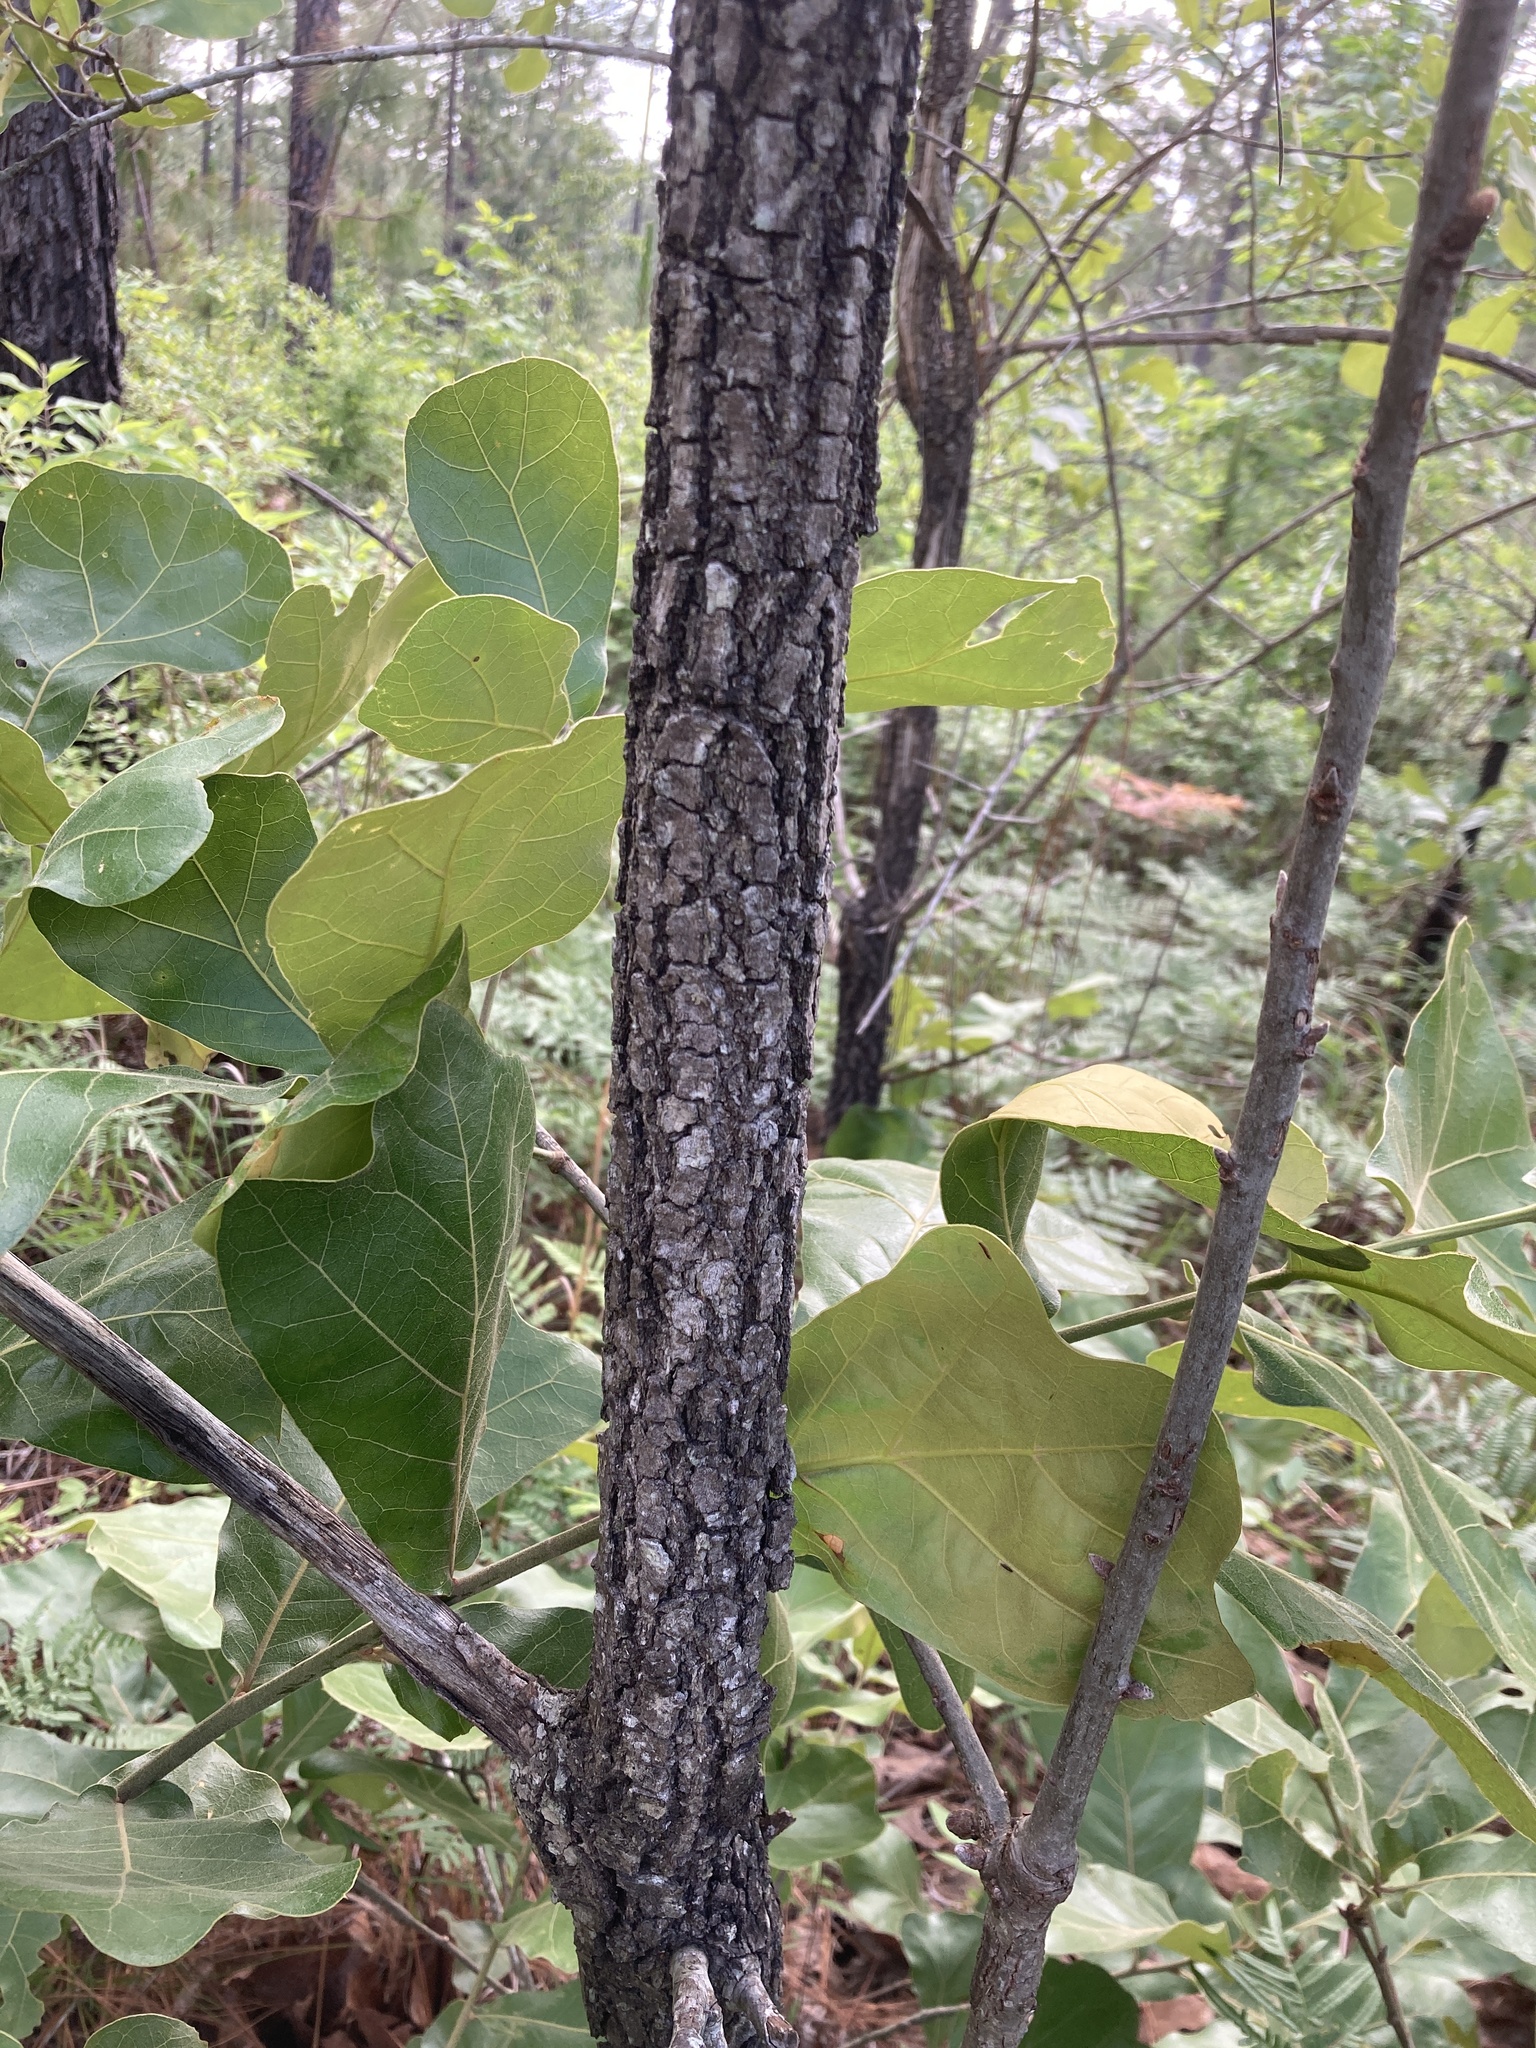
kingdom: Plantae
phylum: Tracheophyta
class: Magnoliopsida
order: Fagales
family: Fagaceae
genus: Quercus
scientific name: Quercus marilandica
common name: Blackjack oak
